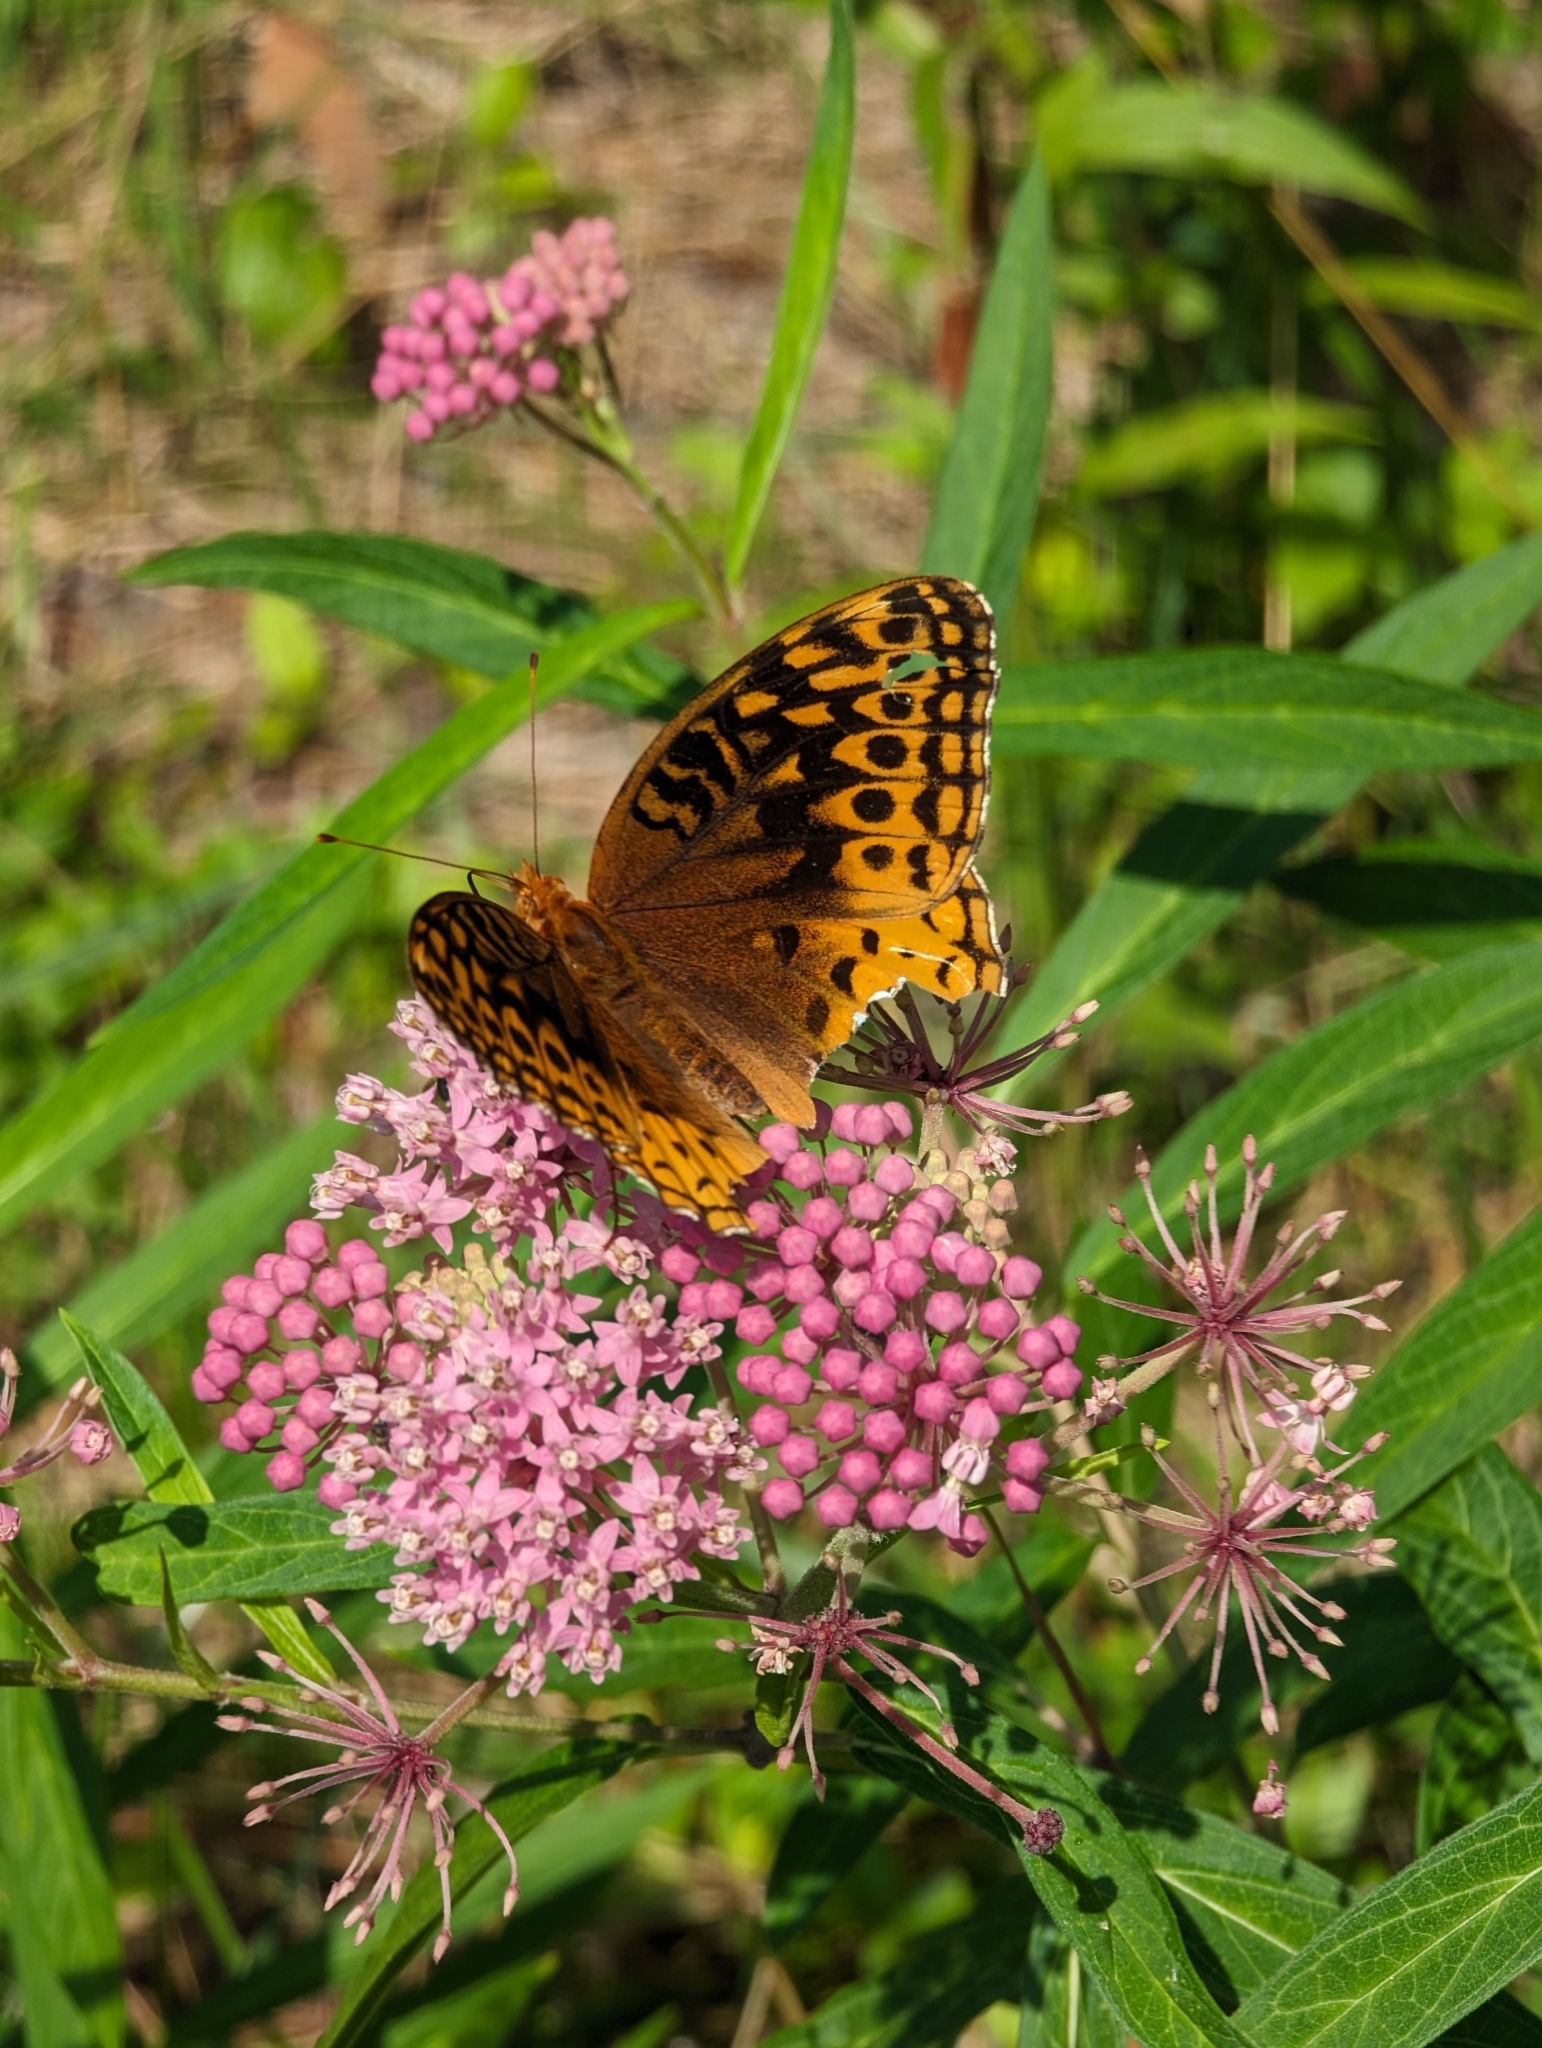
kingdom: Animalia
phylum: Arthropoda
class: Insecta
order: Lepidoptera
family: Nymphalidae
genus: Speyeria
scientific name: Speyeria cybele
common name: Great spangled fritillary
